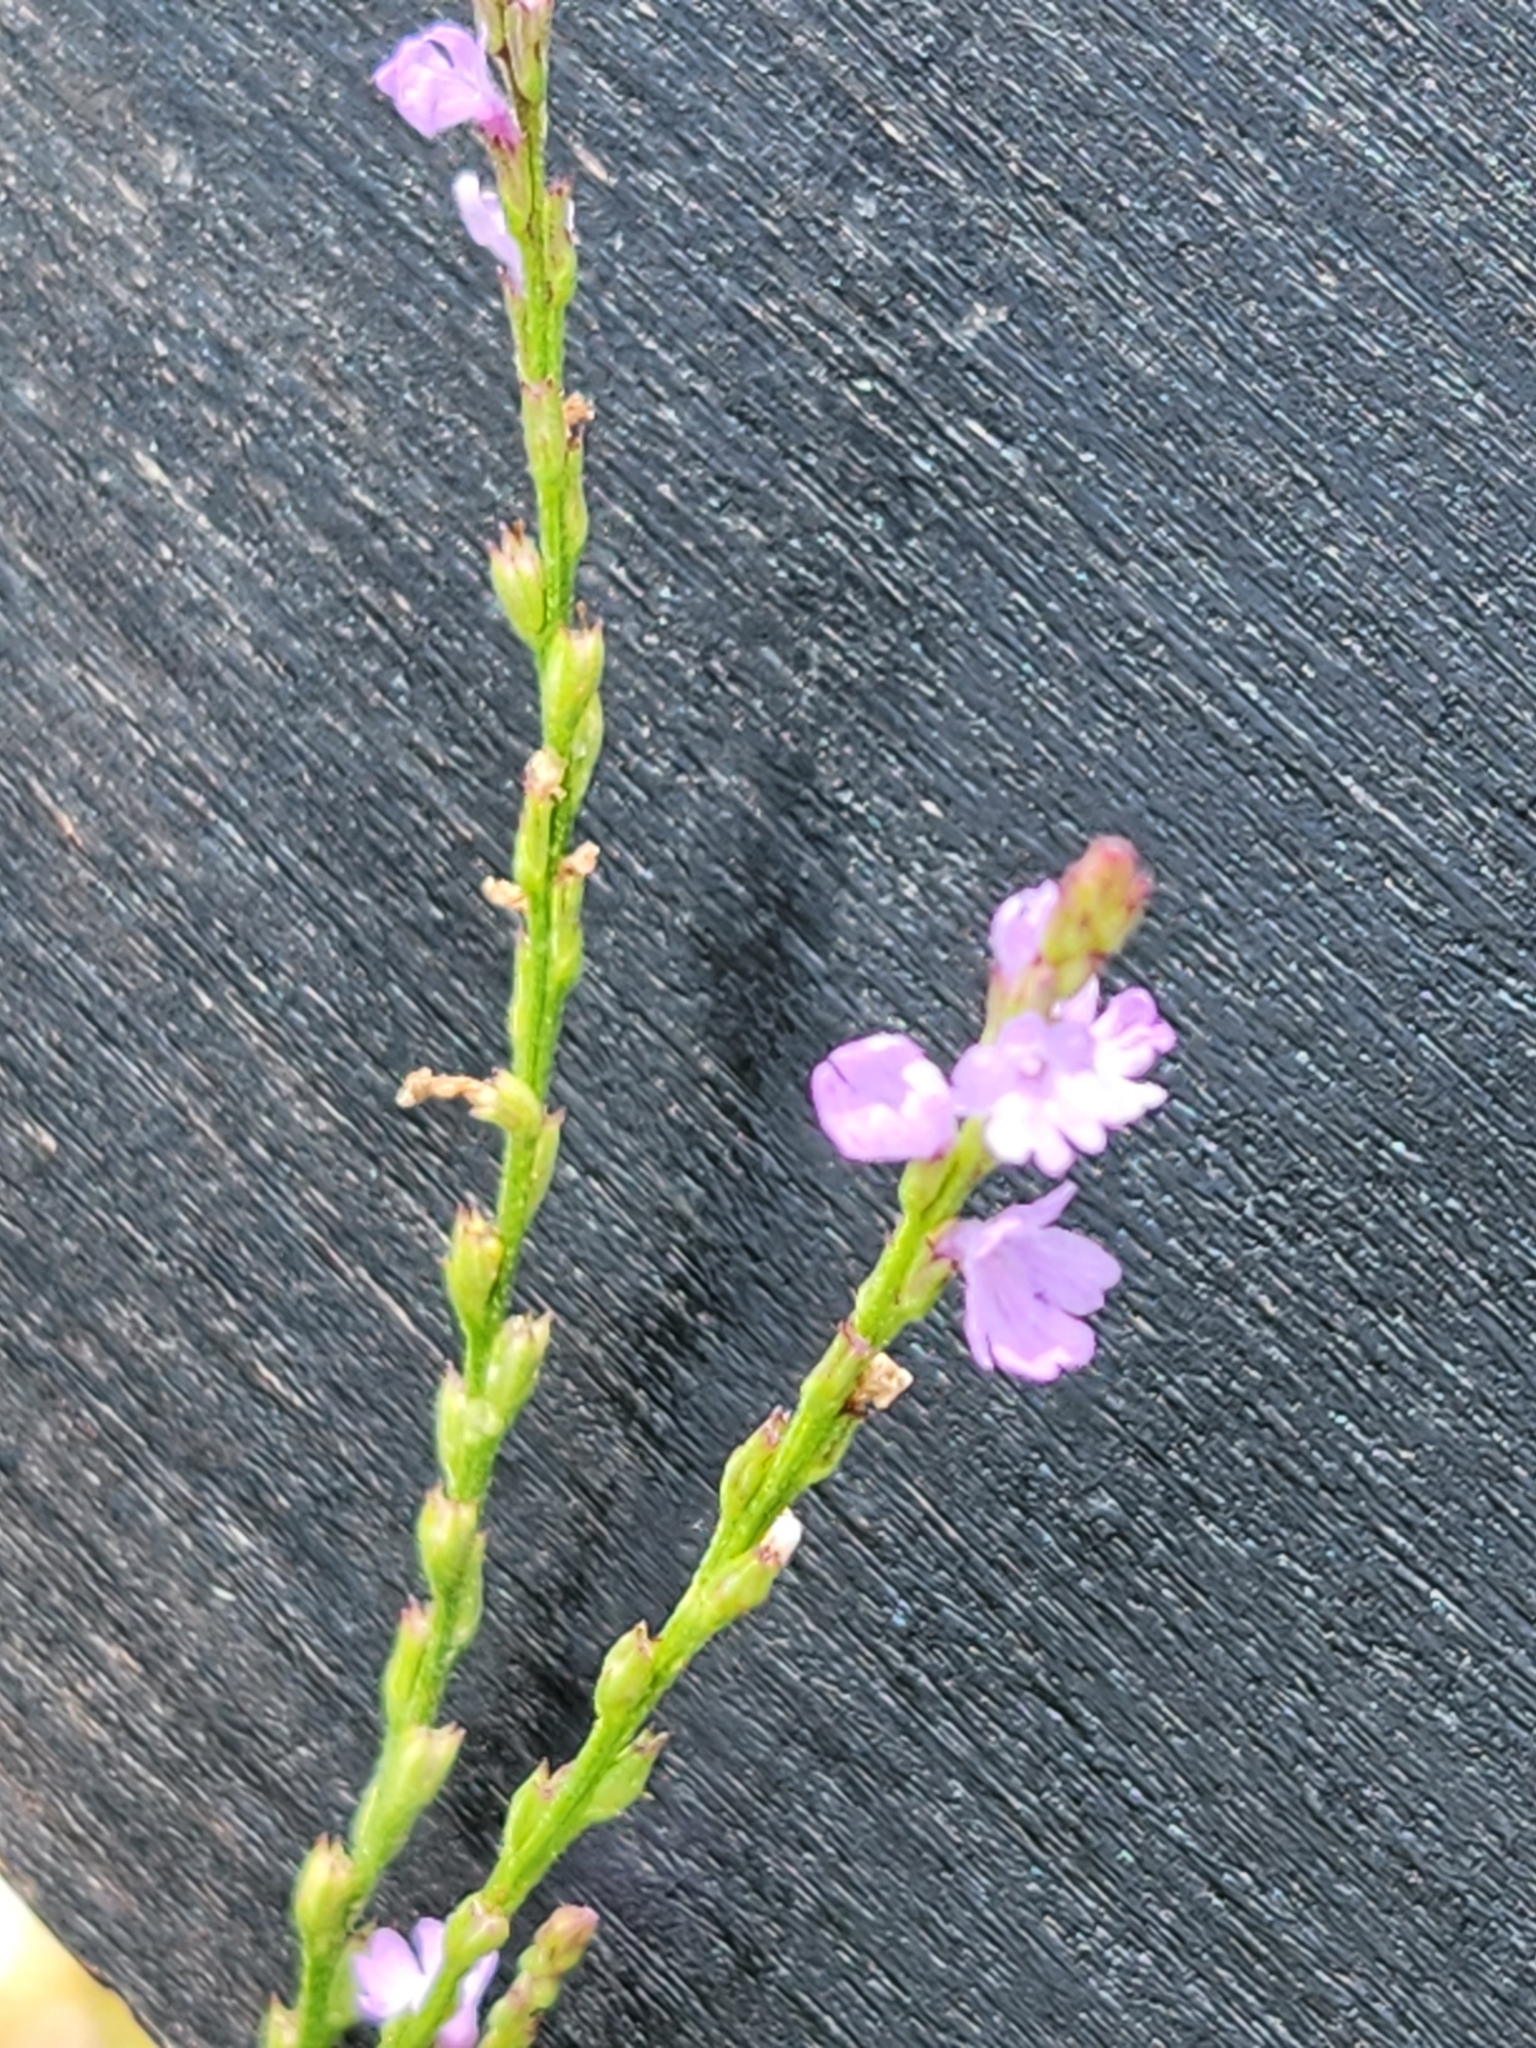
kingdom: Plantae
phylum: Tracheophyta
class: Magnoliopsida
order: Lamiales
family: Verbenaceae
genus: Verbena
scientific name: Verbena halei
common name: Texas vervain
